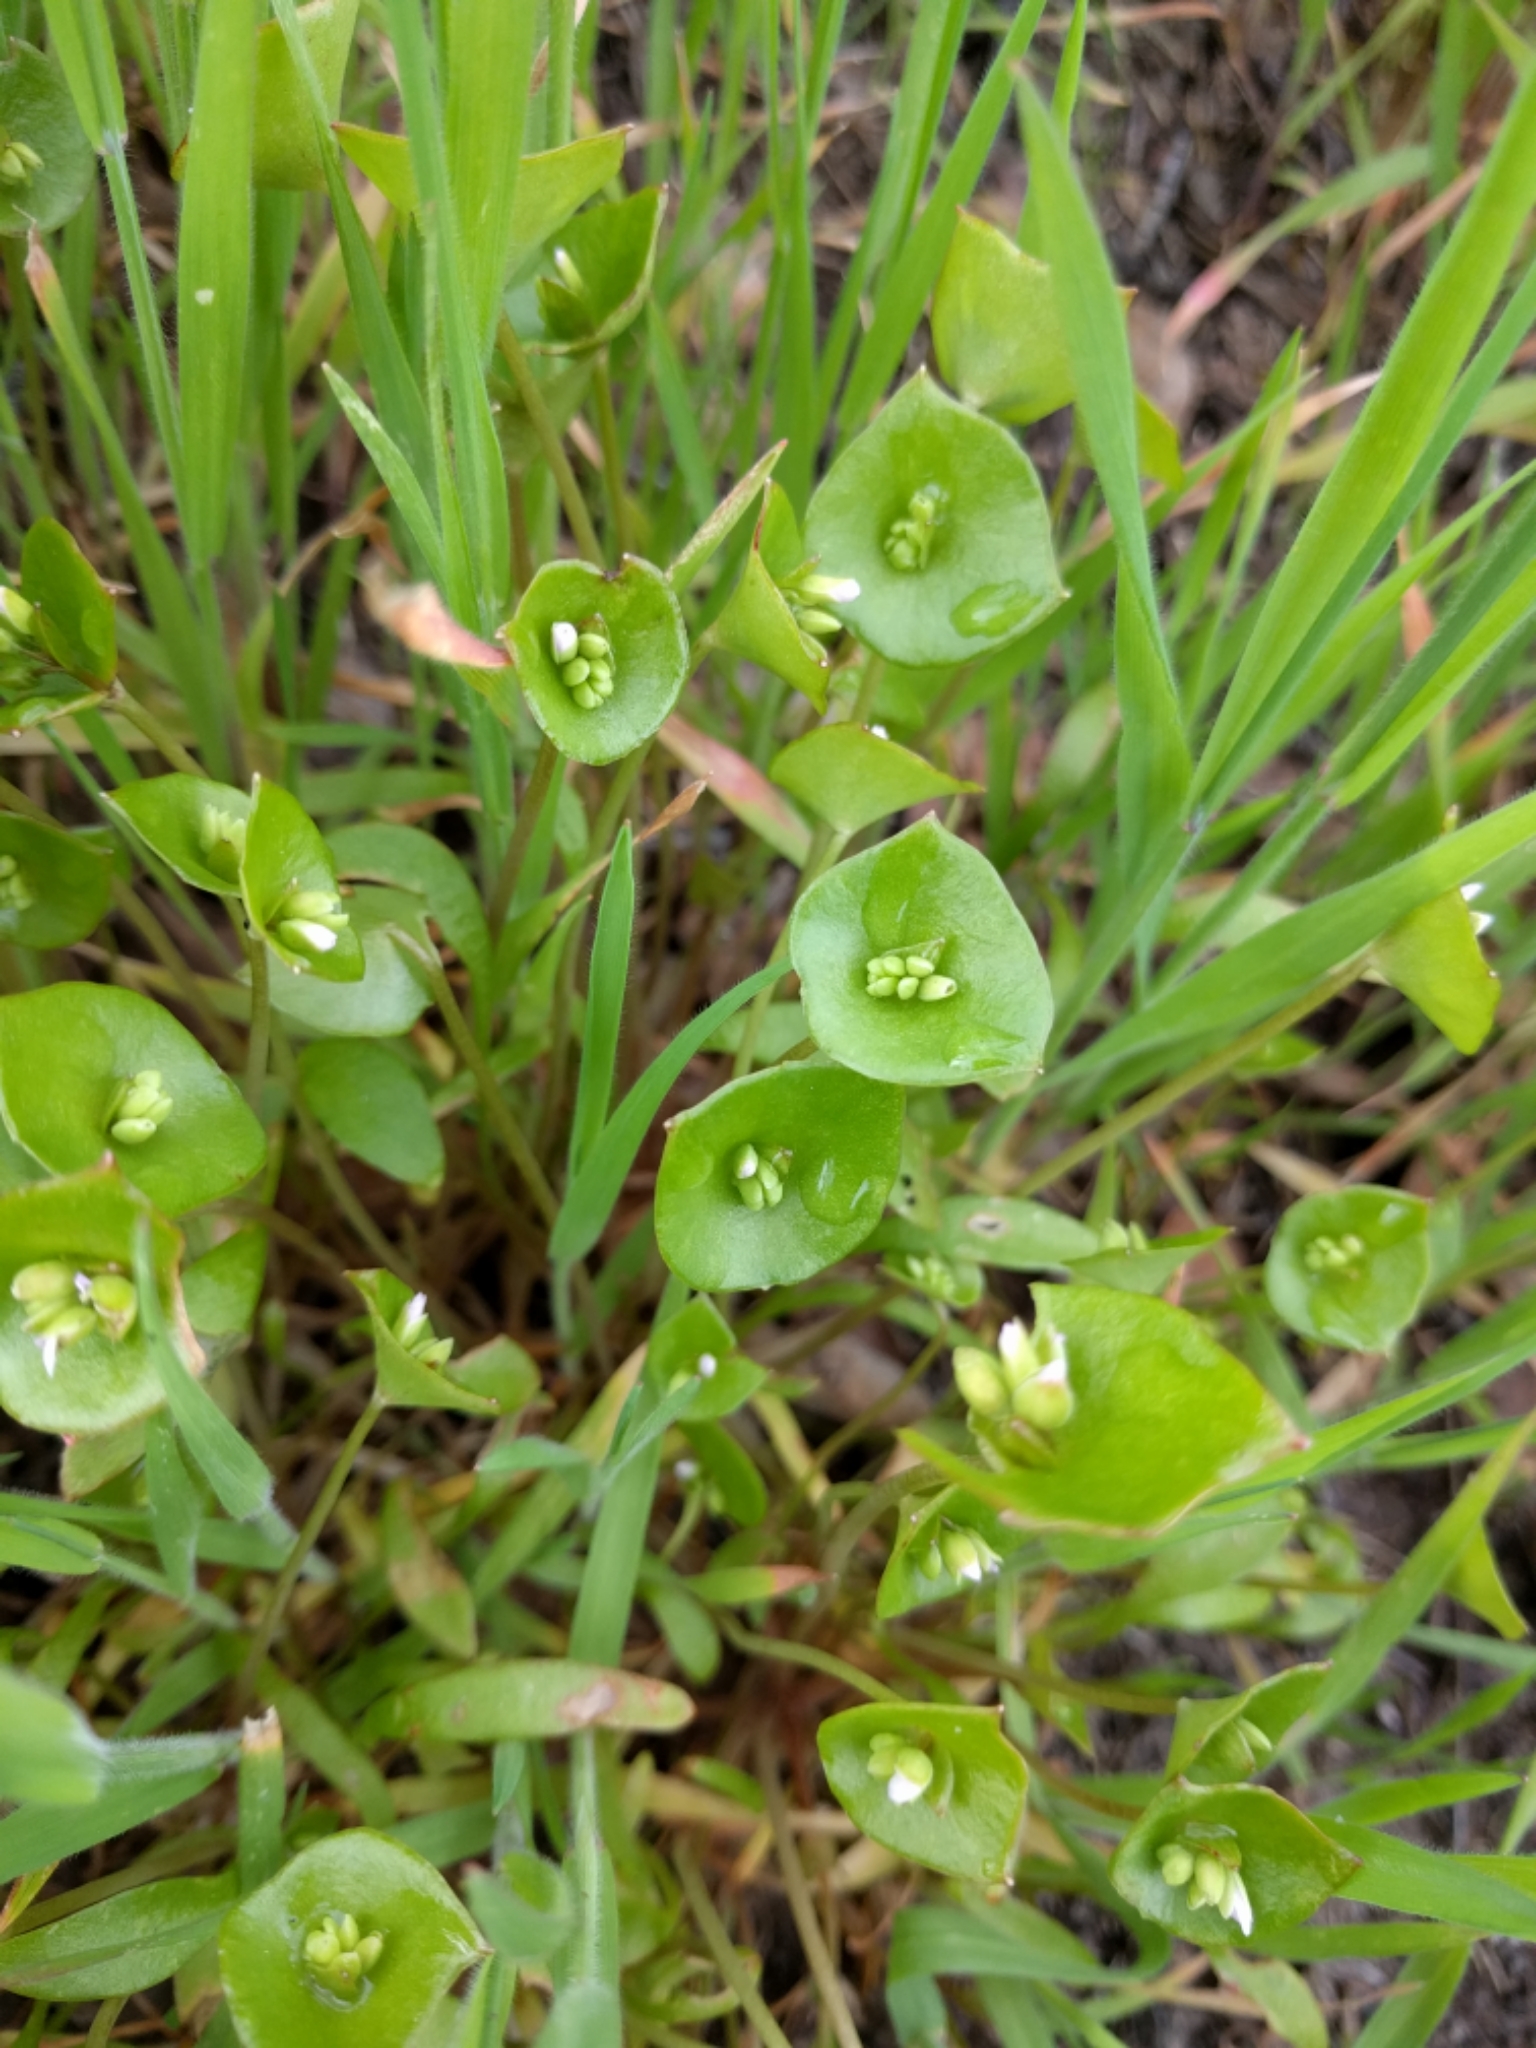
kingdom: Plantae
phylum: Tracheophyta
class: Magnoliopsida
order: Caryophyllales
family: Montiaceae
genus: Claytonia
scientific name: Claytonia perfoliata
